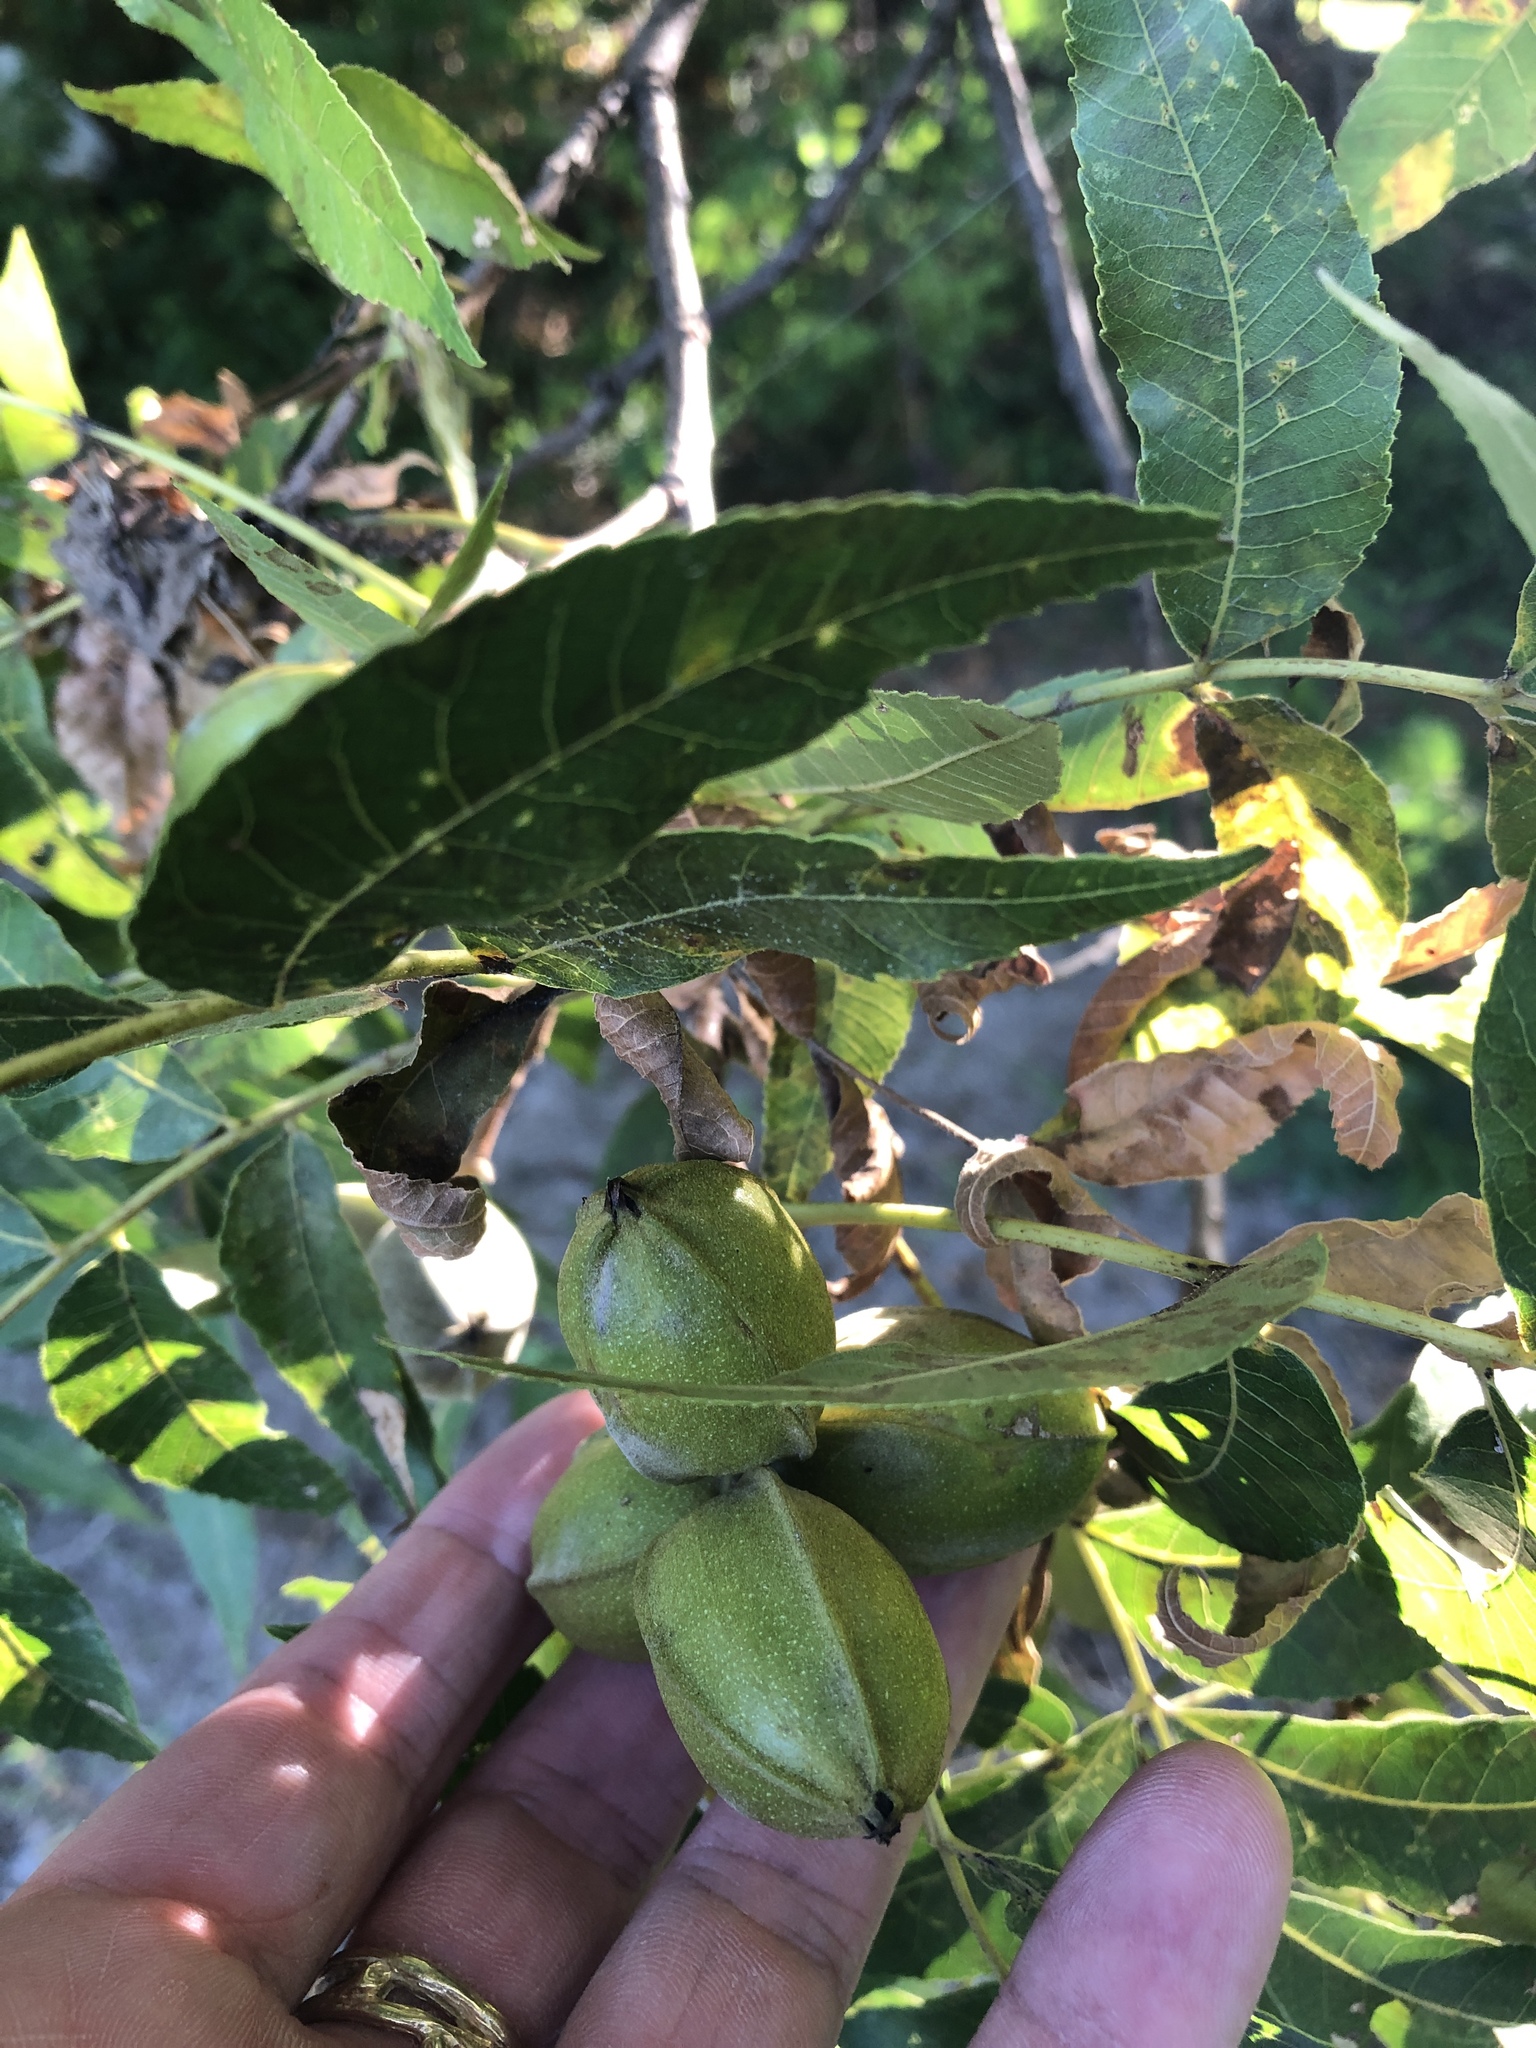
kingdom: Plantae
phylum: Tracheophyta
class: Magnoliopsida
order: Fagales
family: Juglandaceae
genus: Carya
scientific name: Carya illinoinensis
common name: Pecan
